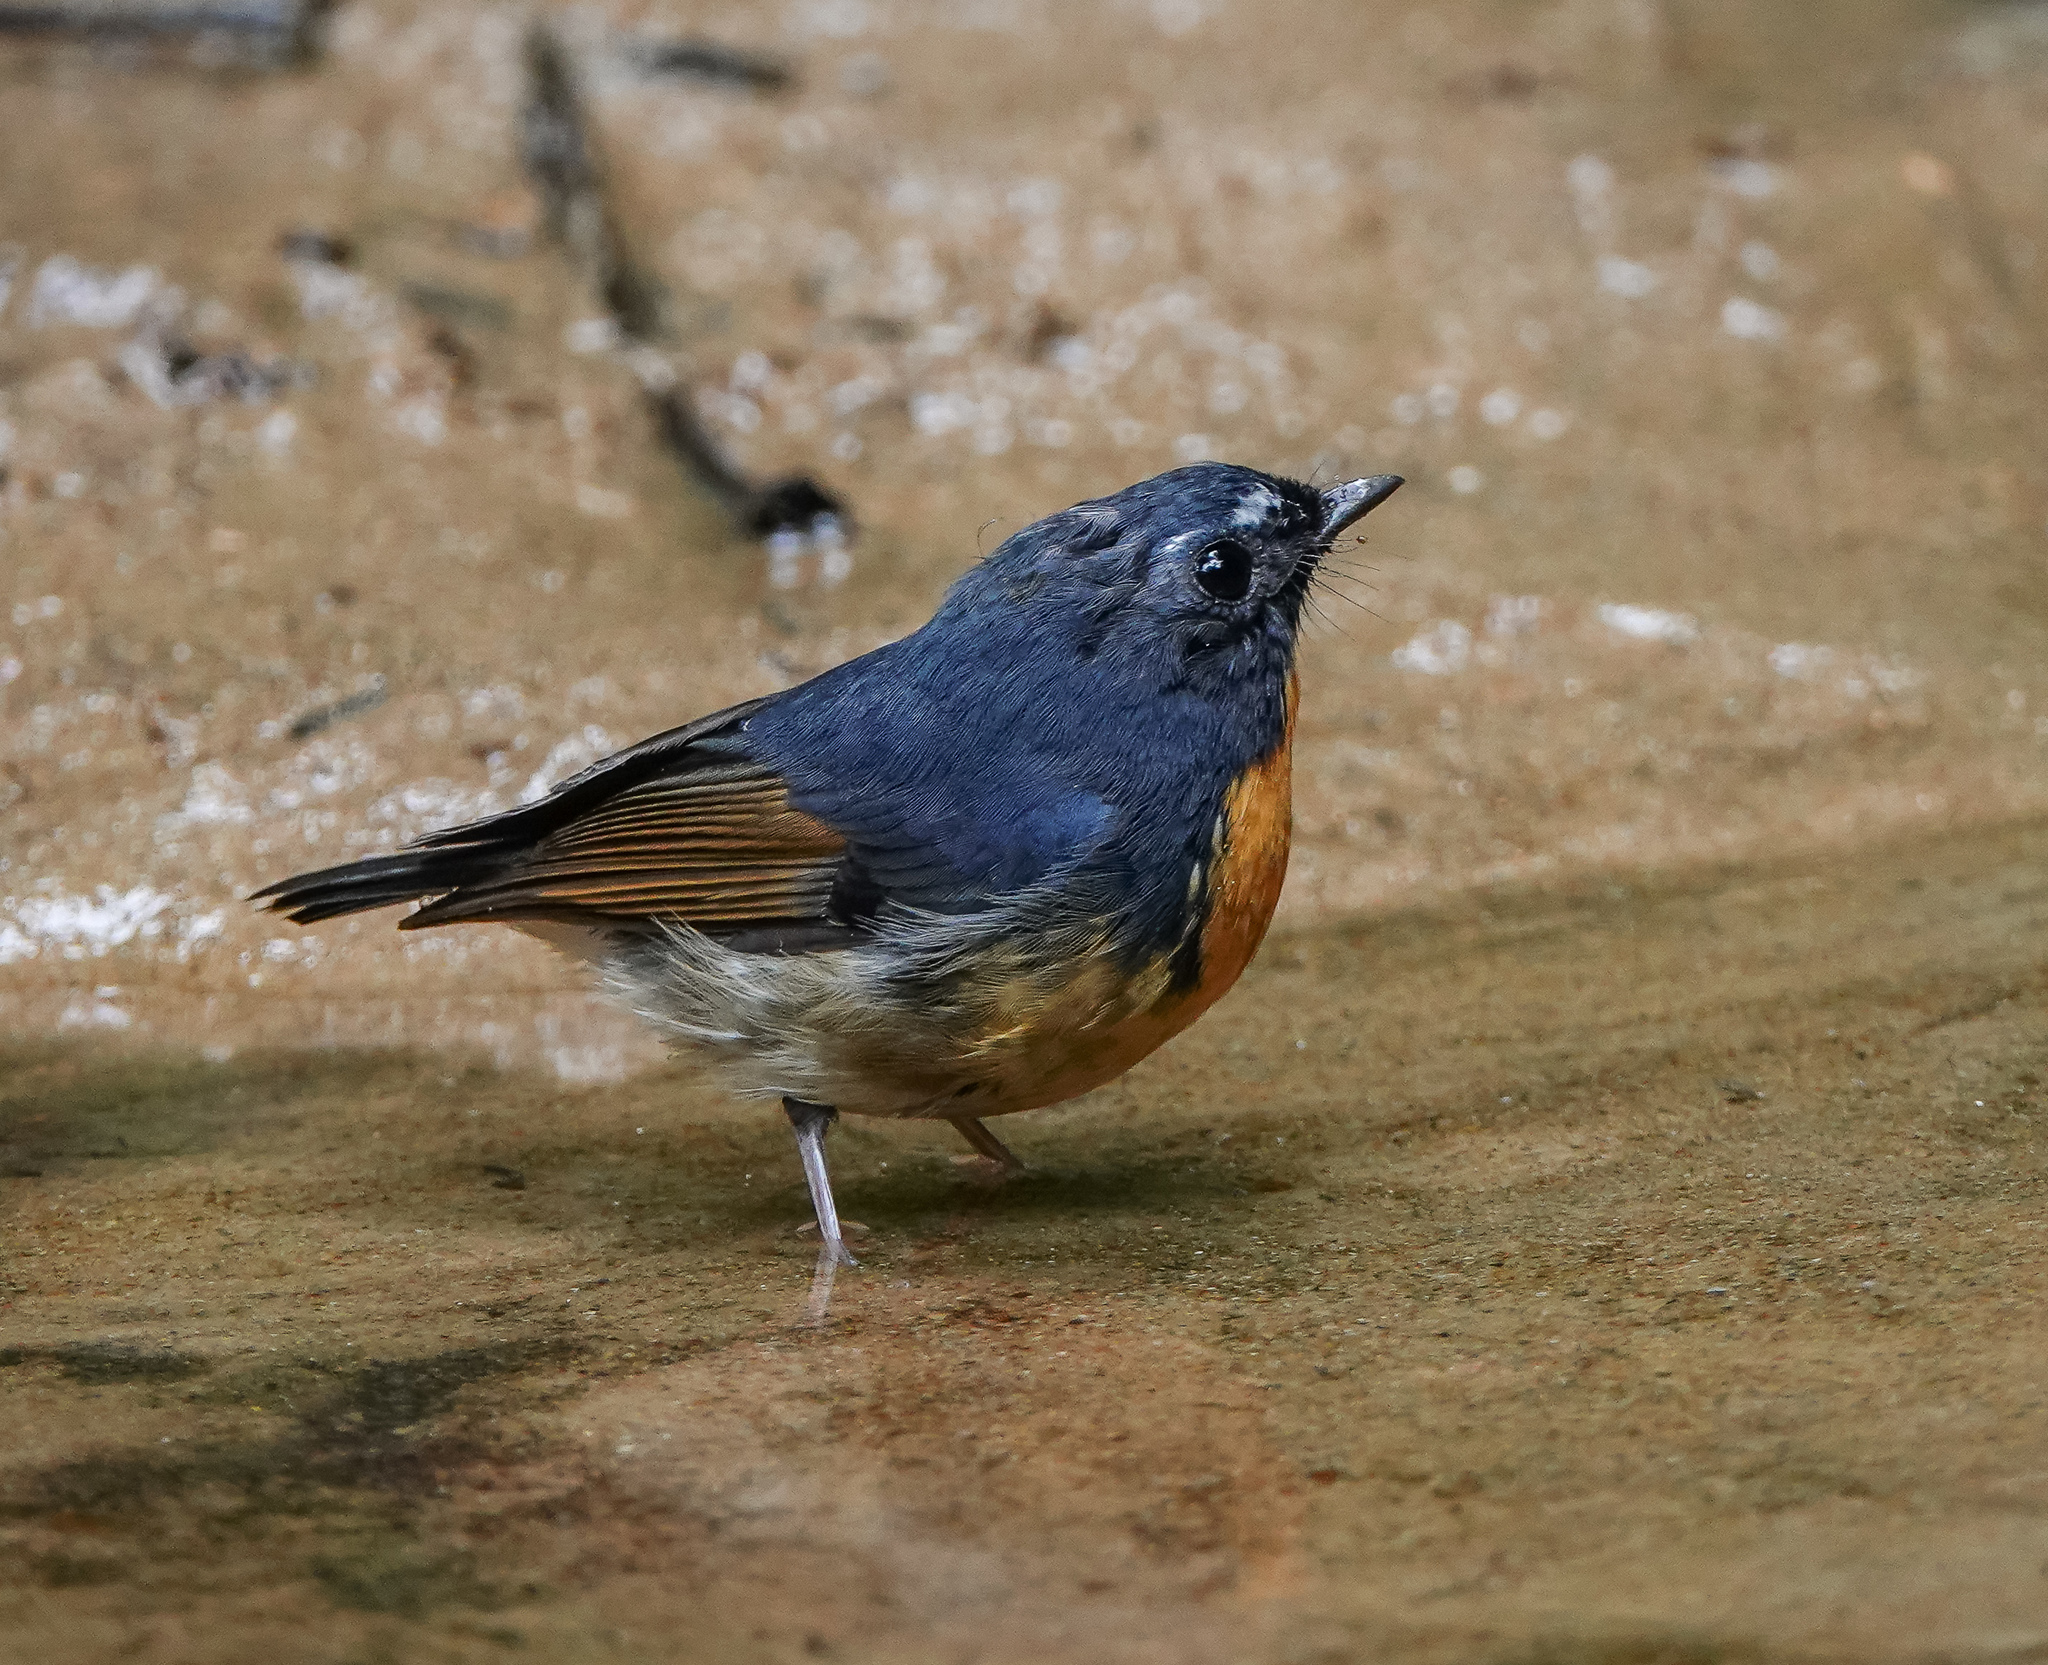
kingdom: Animalia
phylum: Chordata
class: Aves
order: Passeriformes
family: Muscicapidae
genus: Ficedula
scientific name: Ficedula hyperythra
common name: Snowy-browed flycatcher
